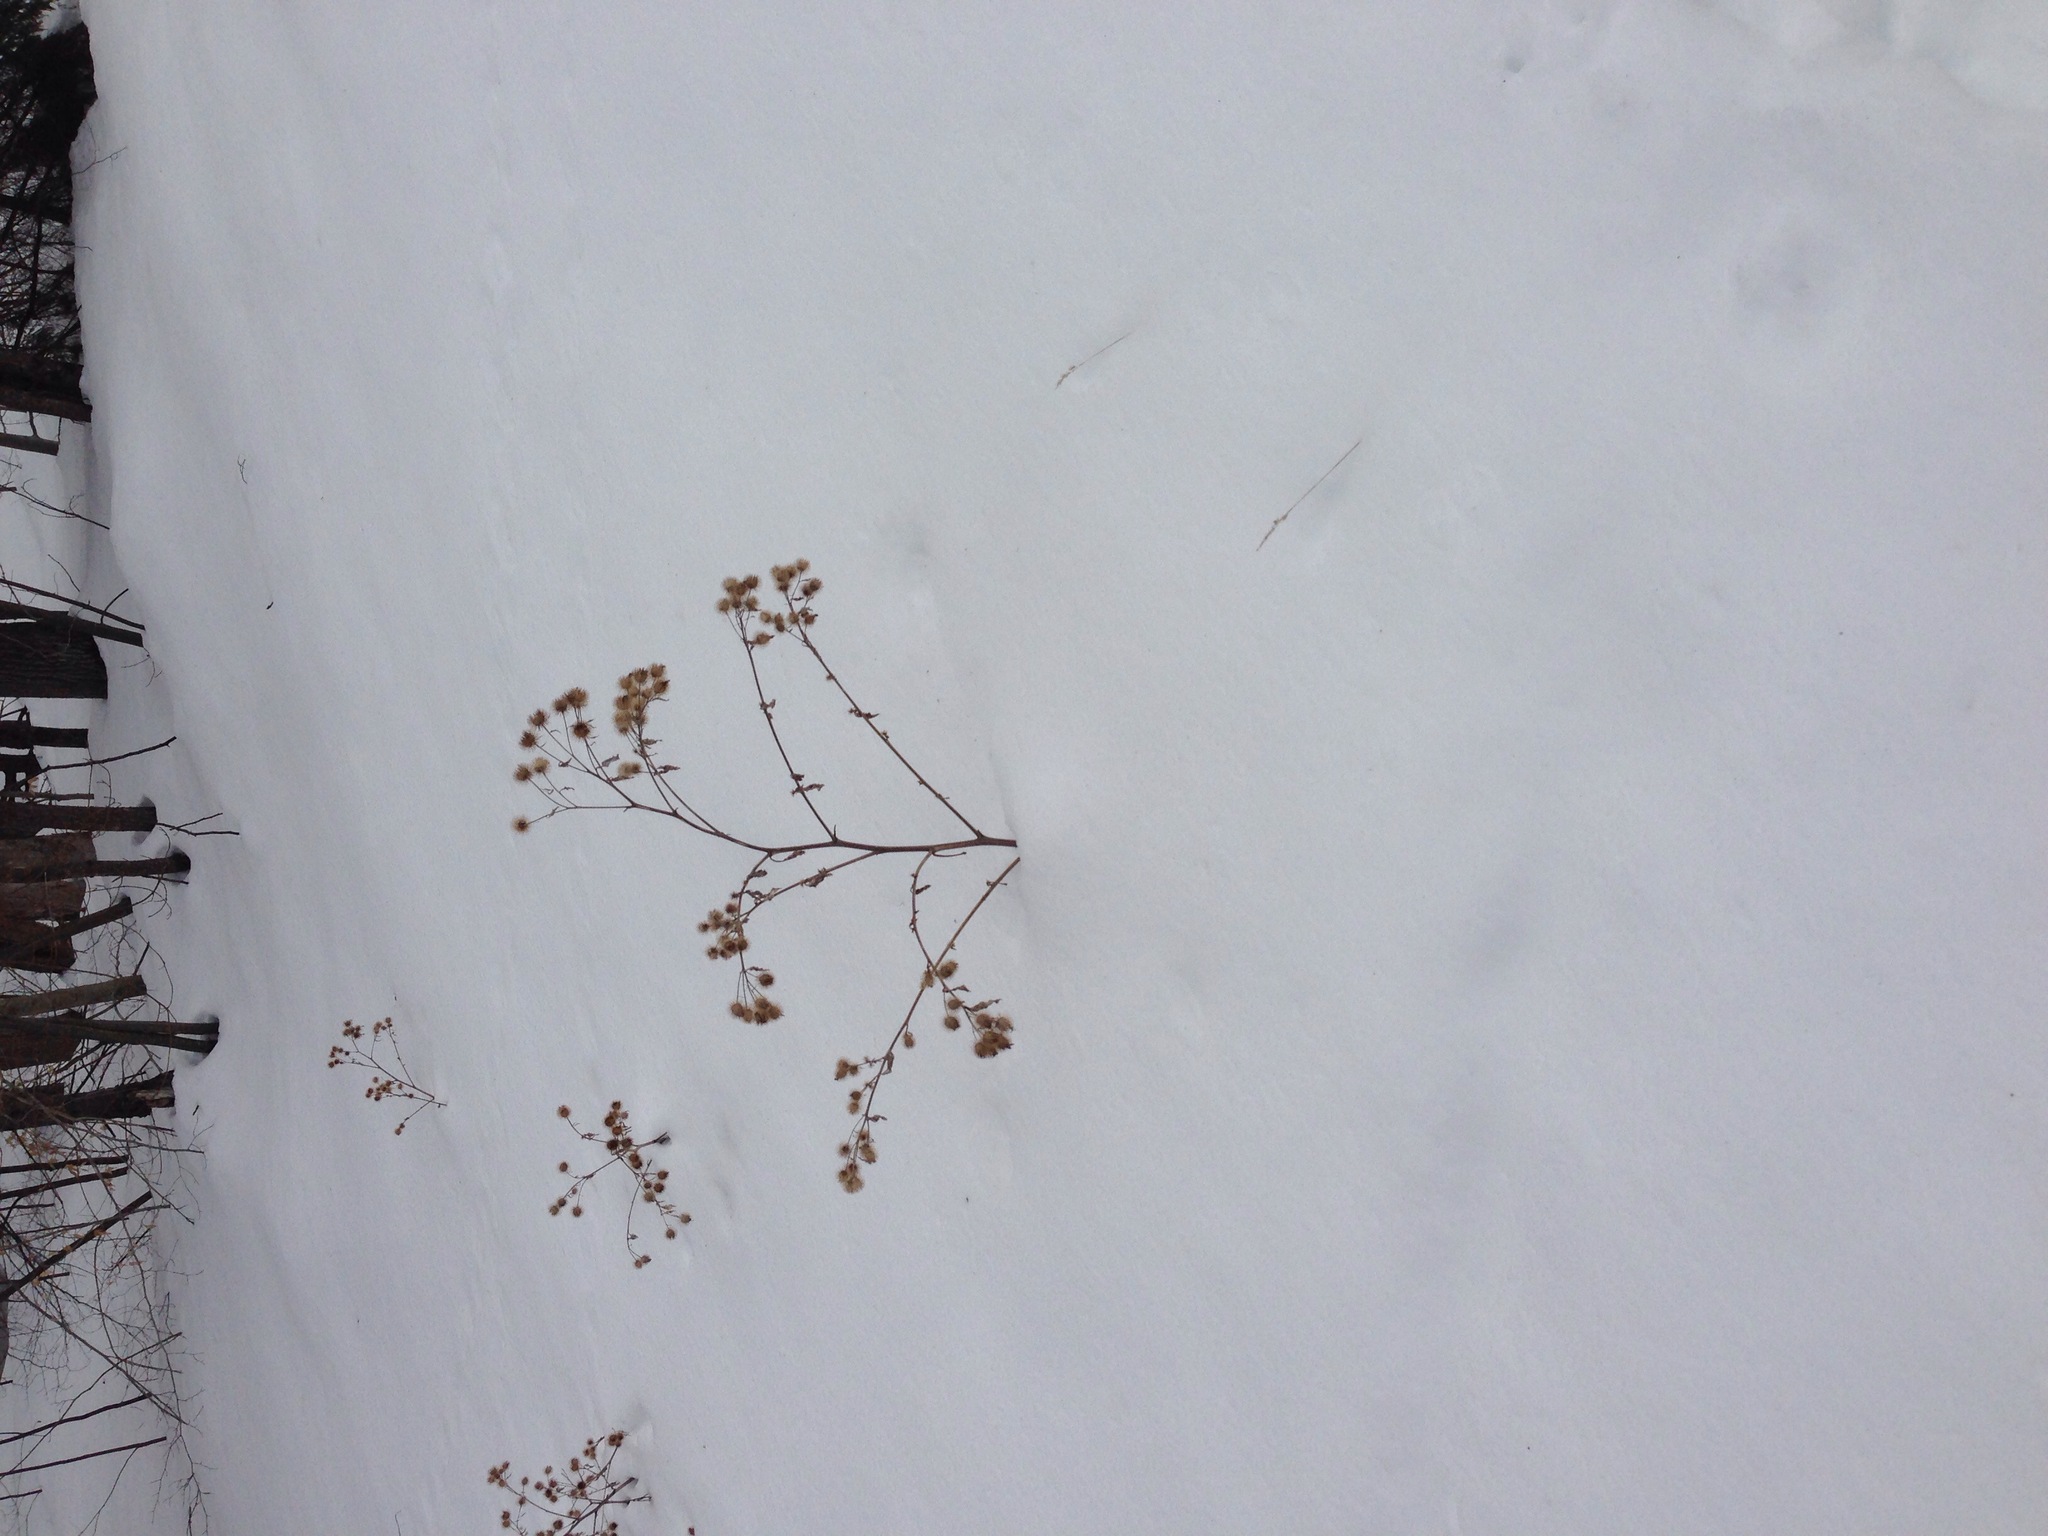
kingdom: Plantae
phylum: Tracheophyta
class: Magnoliopsida
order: Asterales
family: Asteraceae
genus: Arctium
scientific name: Arctium lappa
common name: Greater burdock
